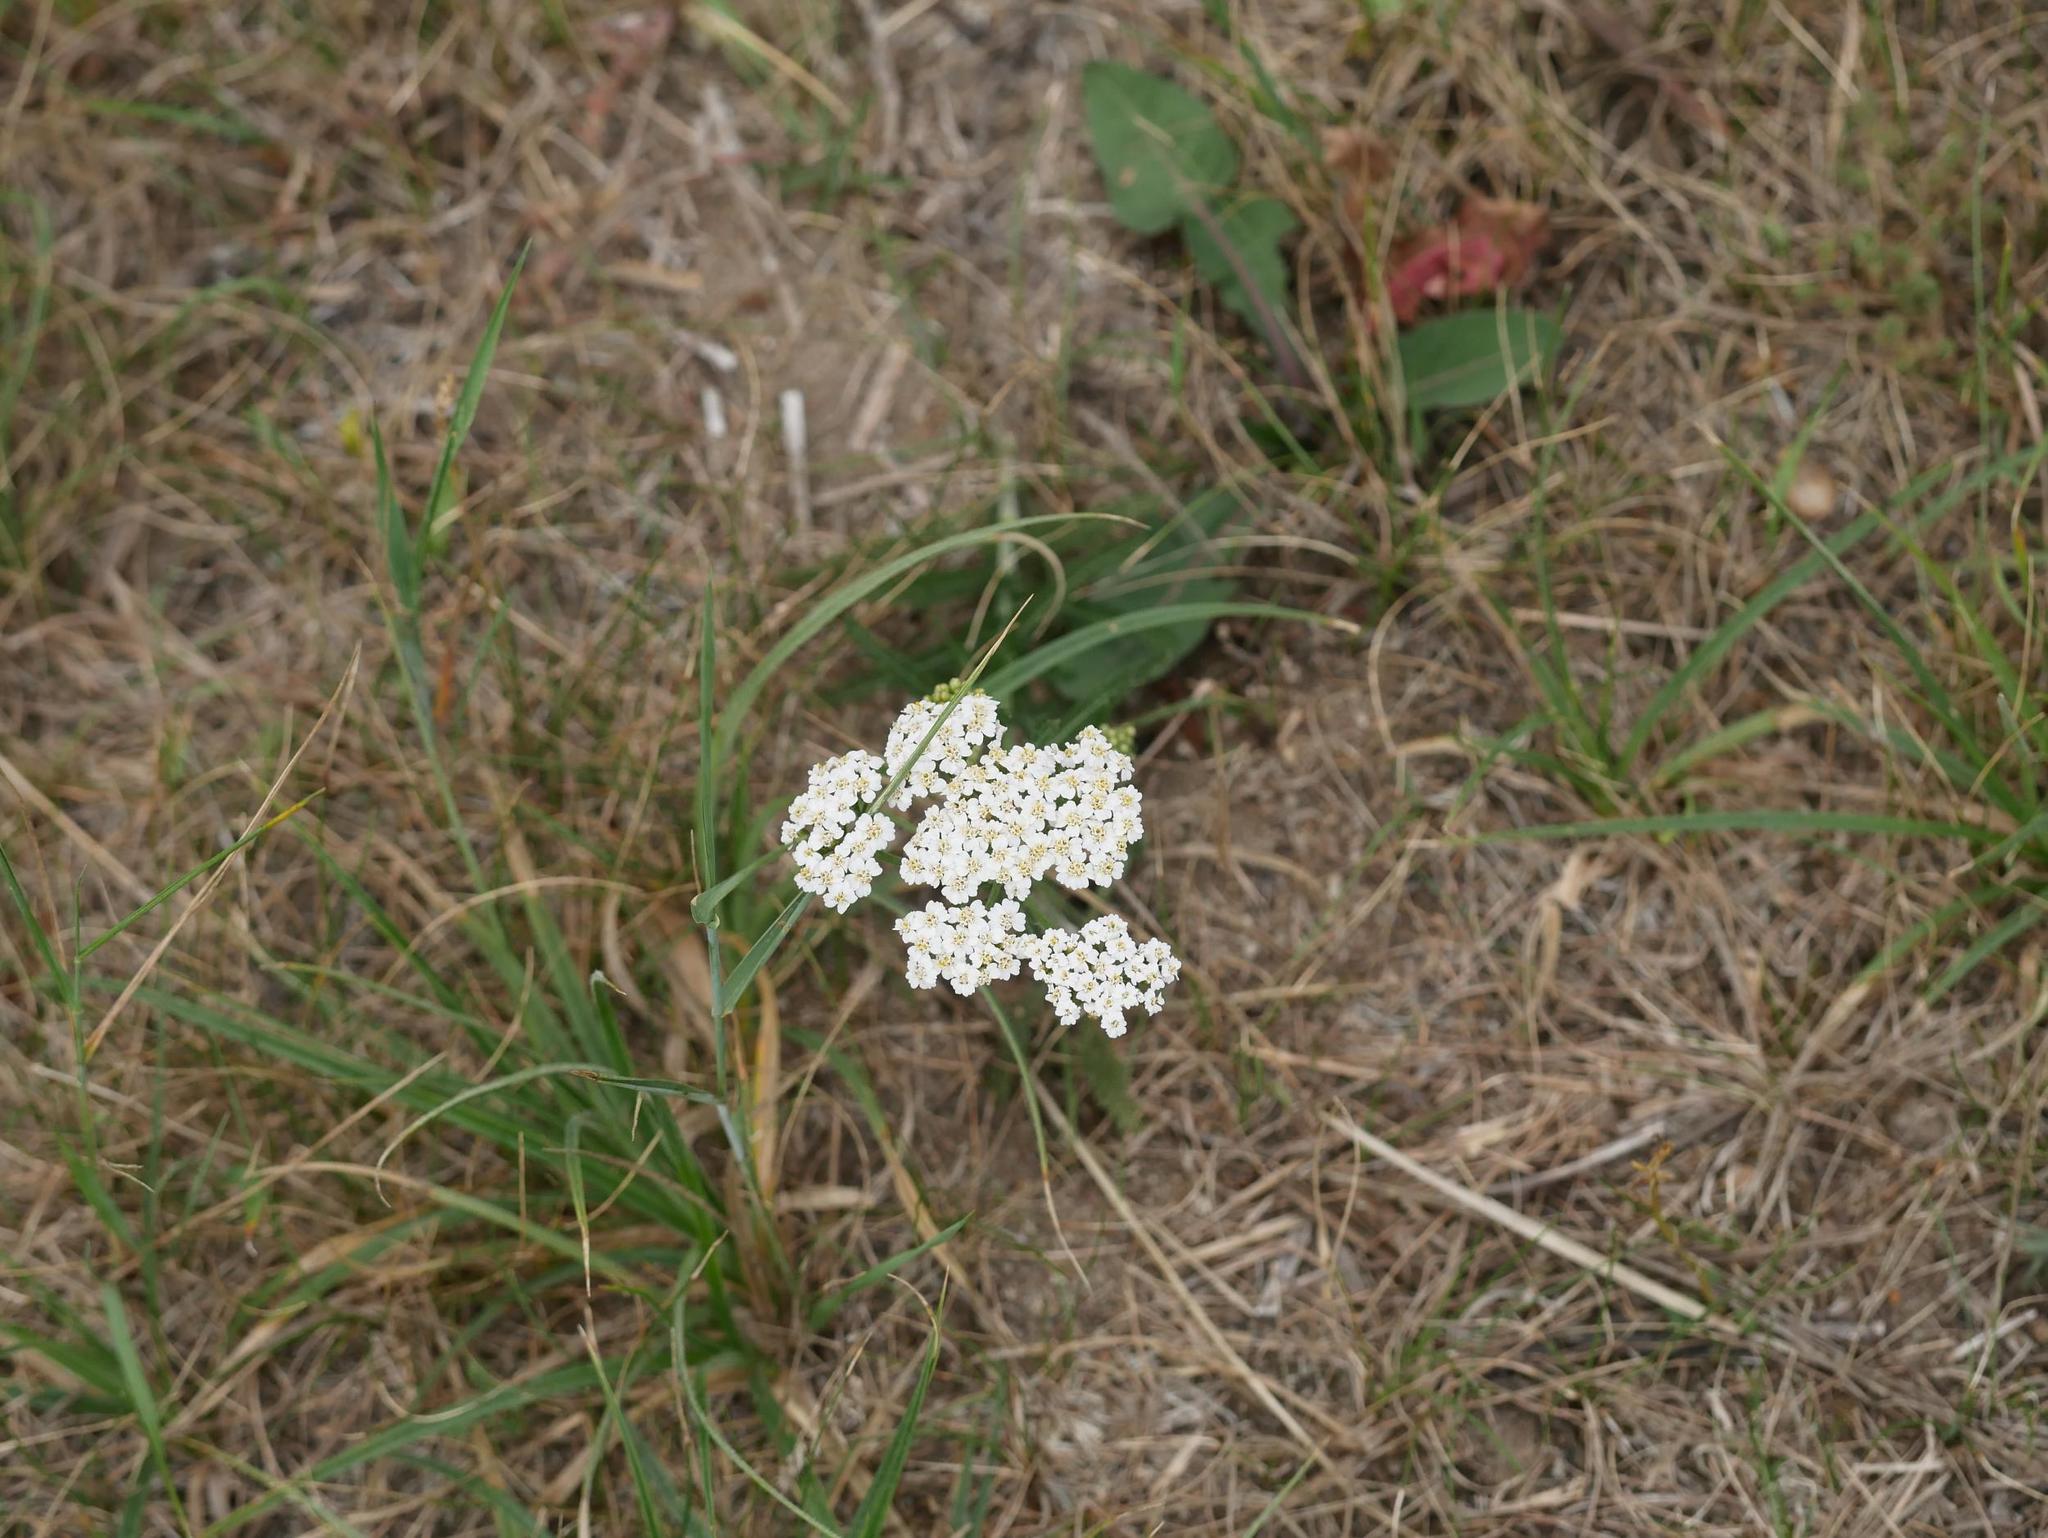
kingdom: Plantae
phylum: Tracheophyta
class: Magnoliopsida
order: Asterales
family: Asteraceae
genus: Achillea
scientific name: Achillea millefolium
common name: Yarrow
